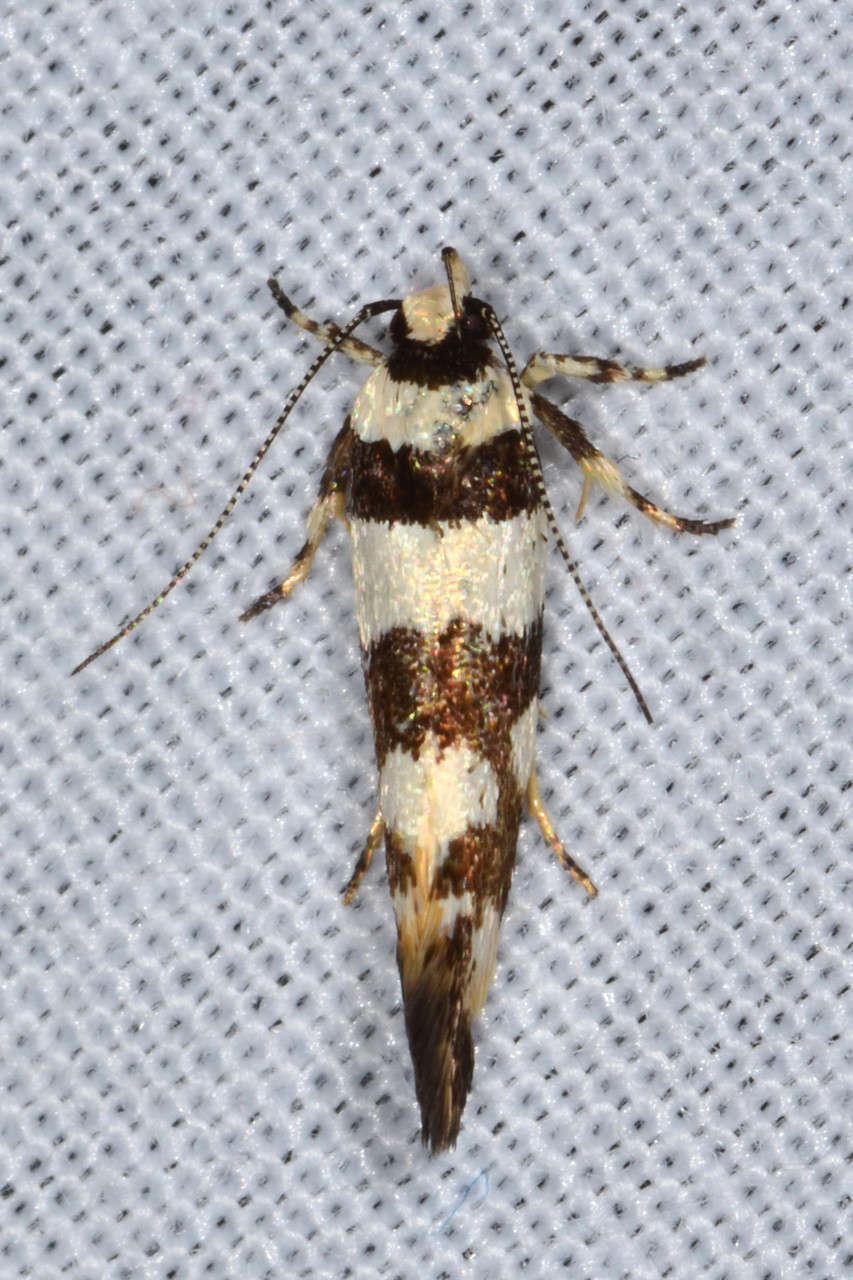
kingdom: Animalia
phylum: Arthropoda
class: Insecta
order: Lepidoptera
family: Cosmopterigidae
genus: Macrobathra
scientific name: Macrobathra desmotoma
